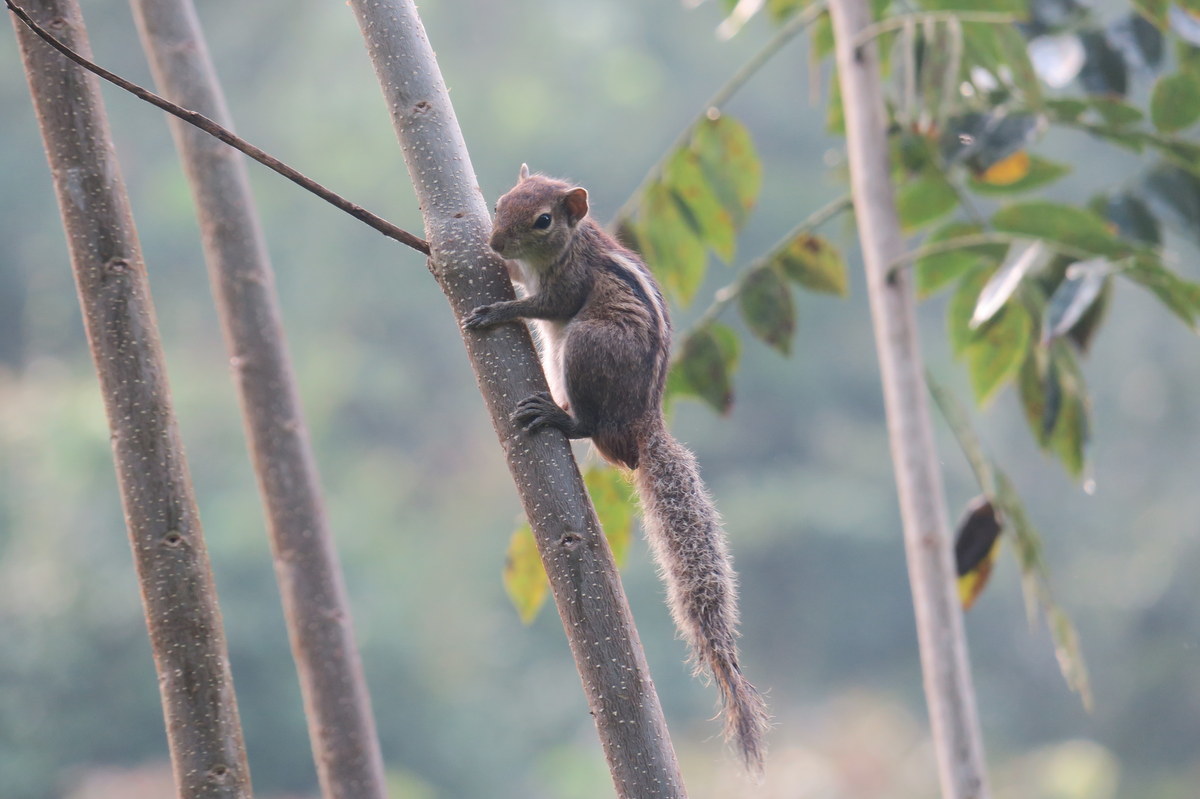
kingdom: Animalia
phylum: Chordata
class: Mammalia
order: Rodentia
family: Sciuridae
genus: Funambulus
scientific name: Funambulus palmarum
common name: Indian palm squirrel
